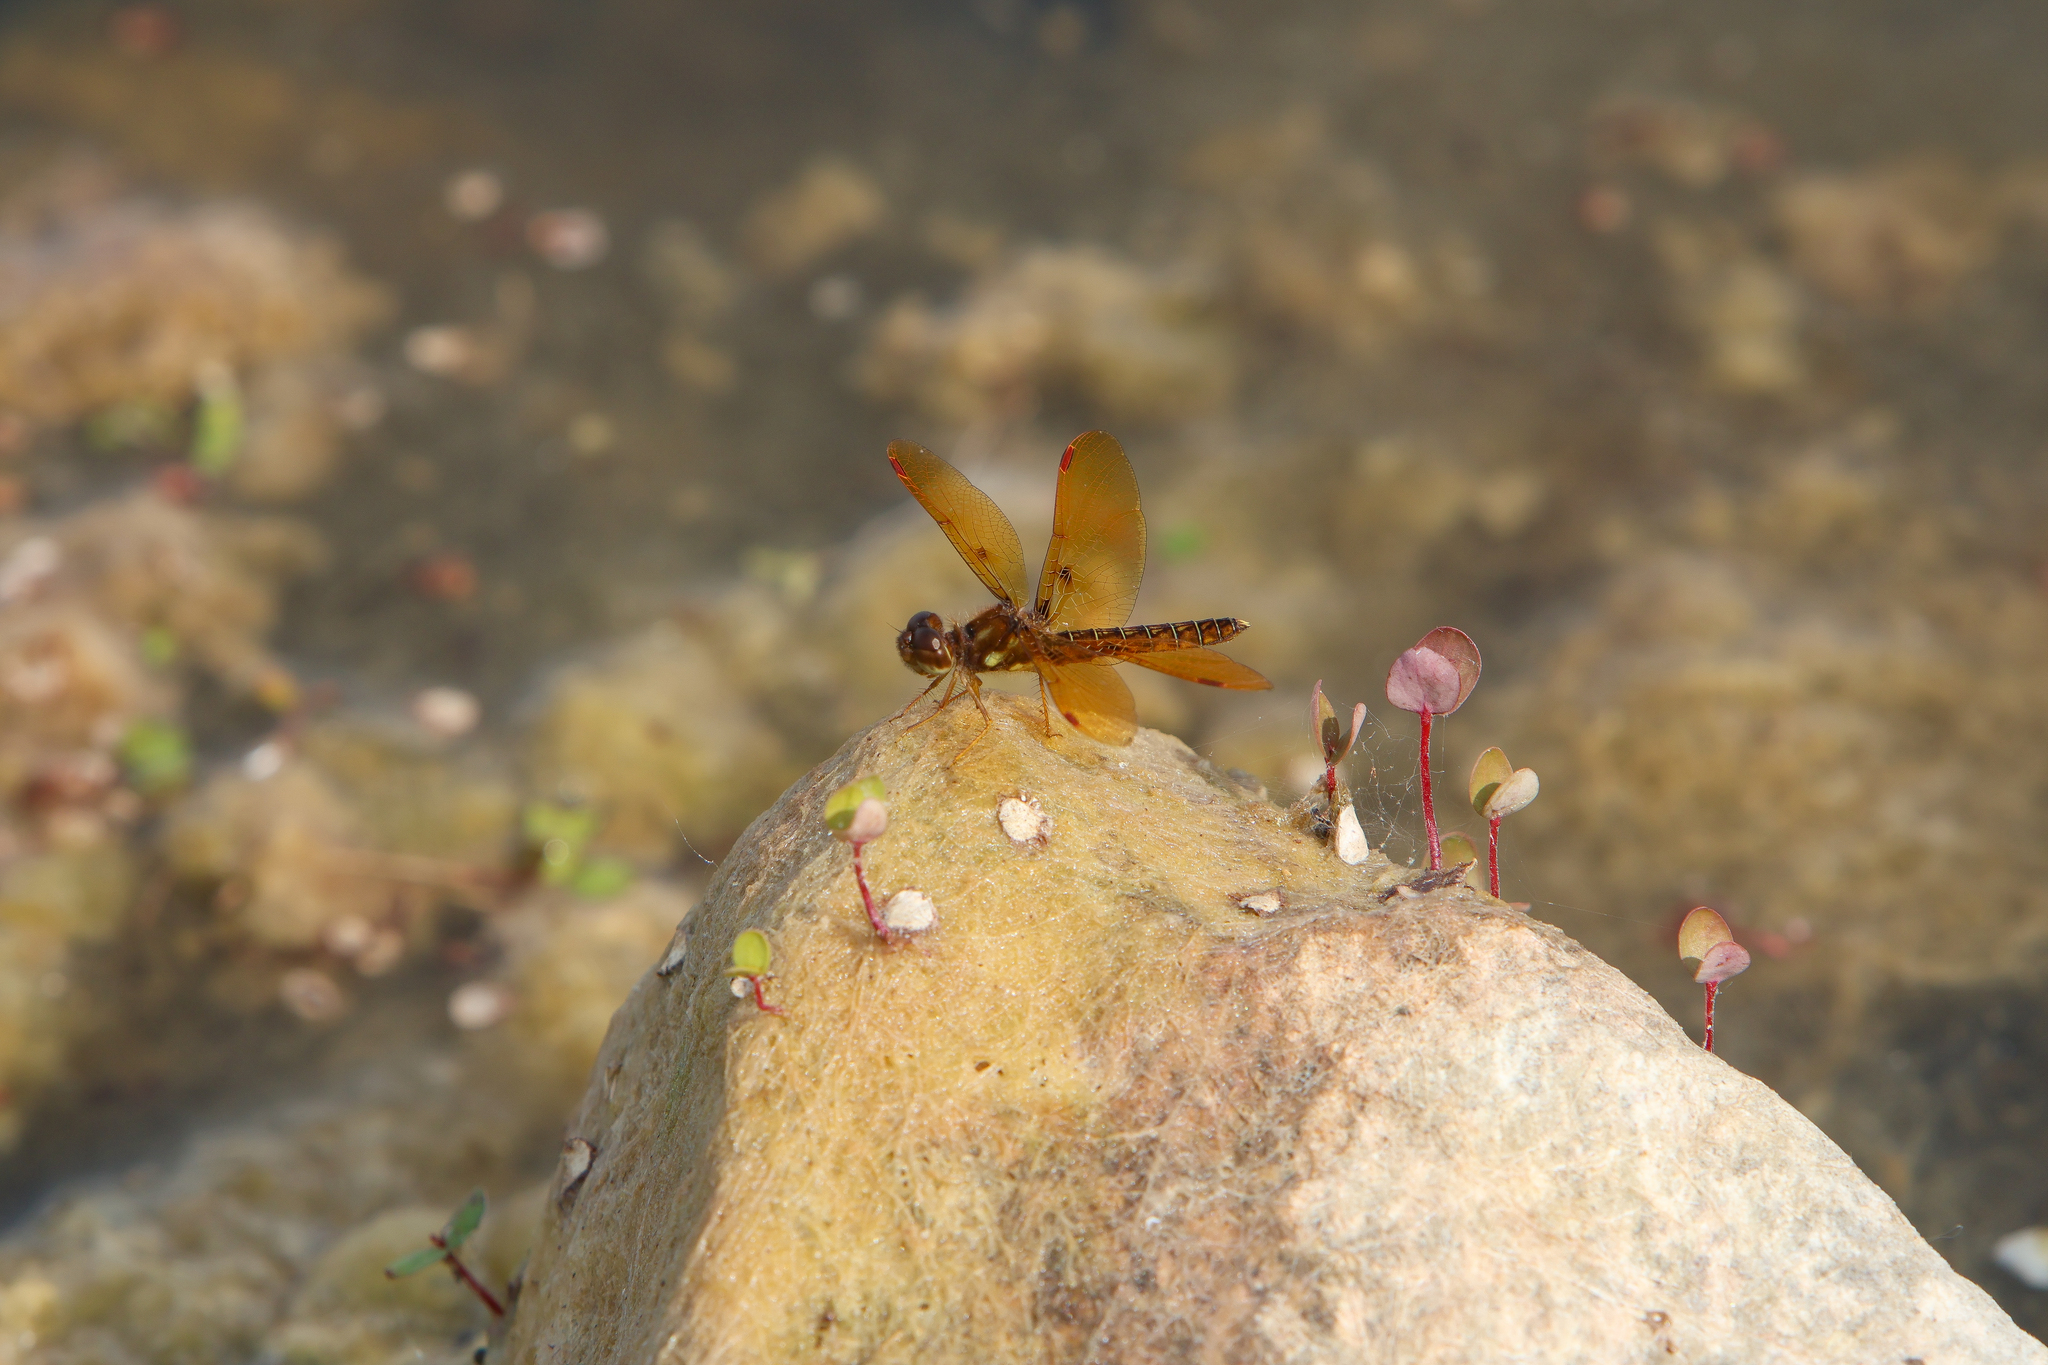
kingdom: Animalia
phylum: Arthropoda
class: Insecta
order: Odonata
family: Libellulidae
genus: Perithemis
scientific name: Perithemis tenera
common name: Eastern amberwing
